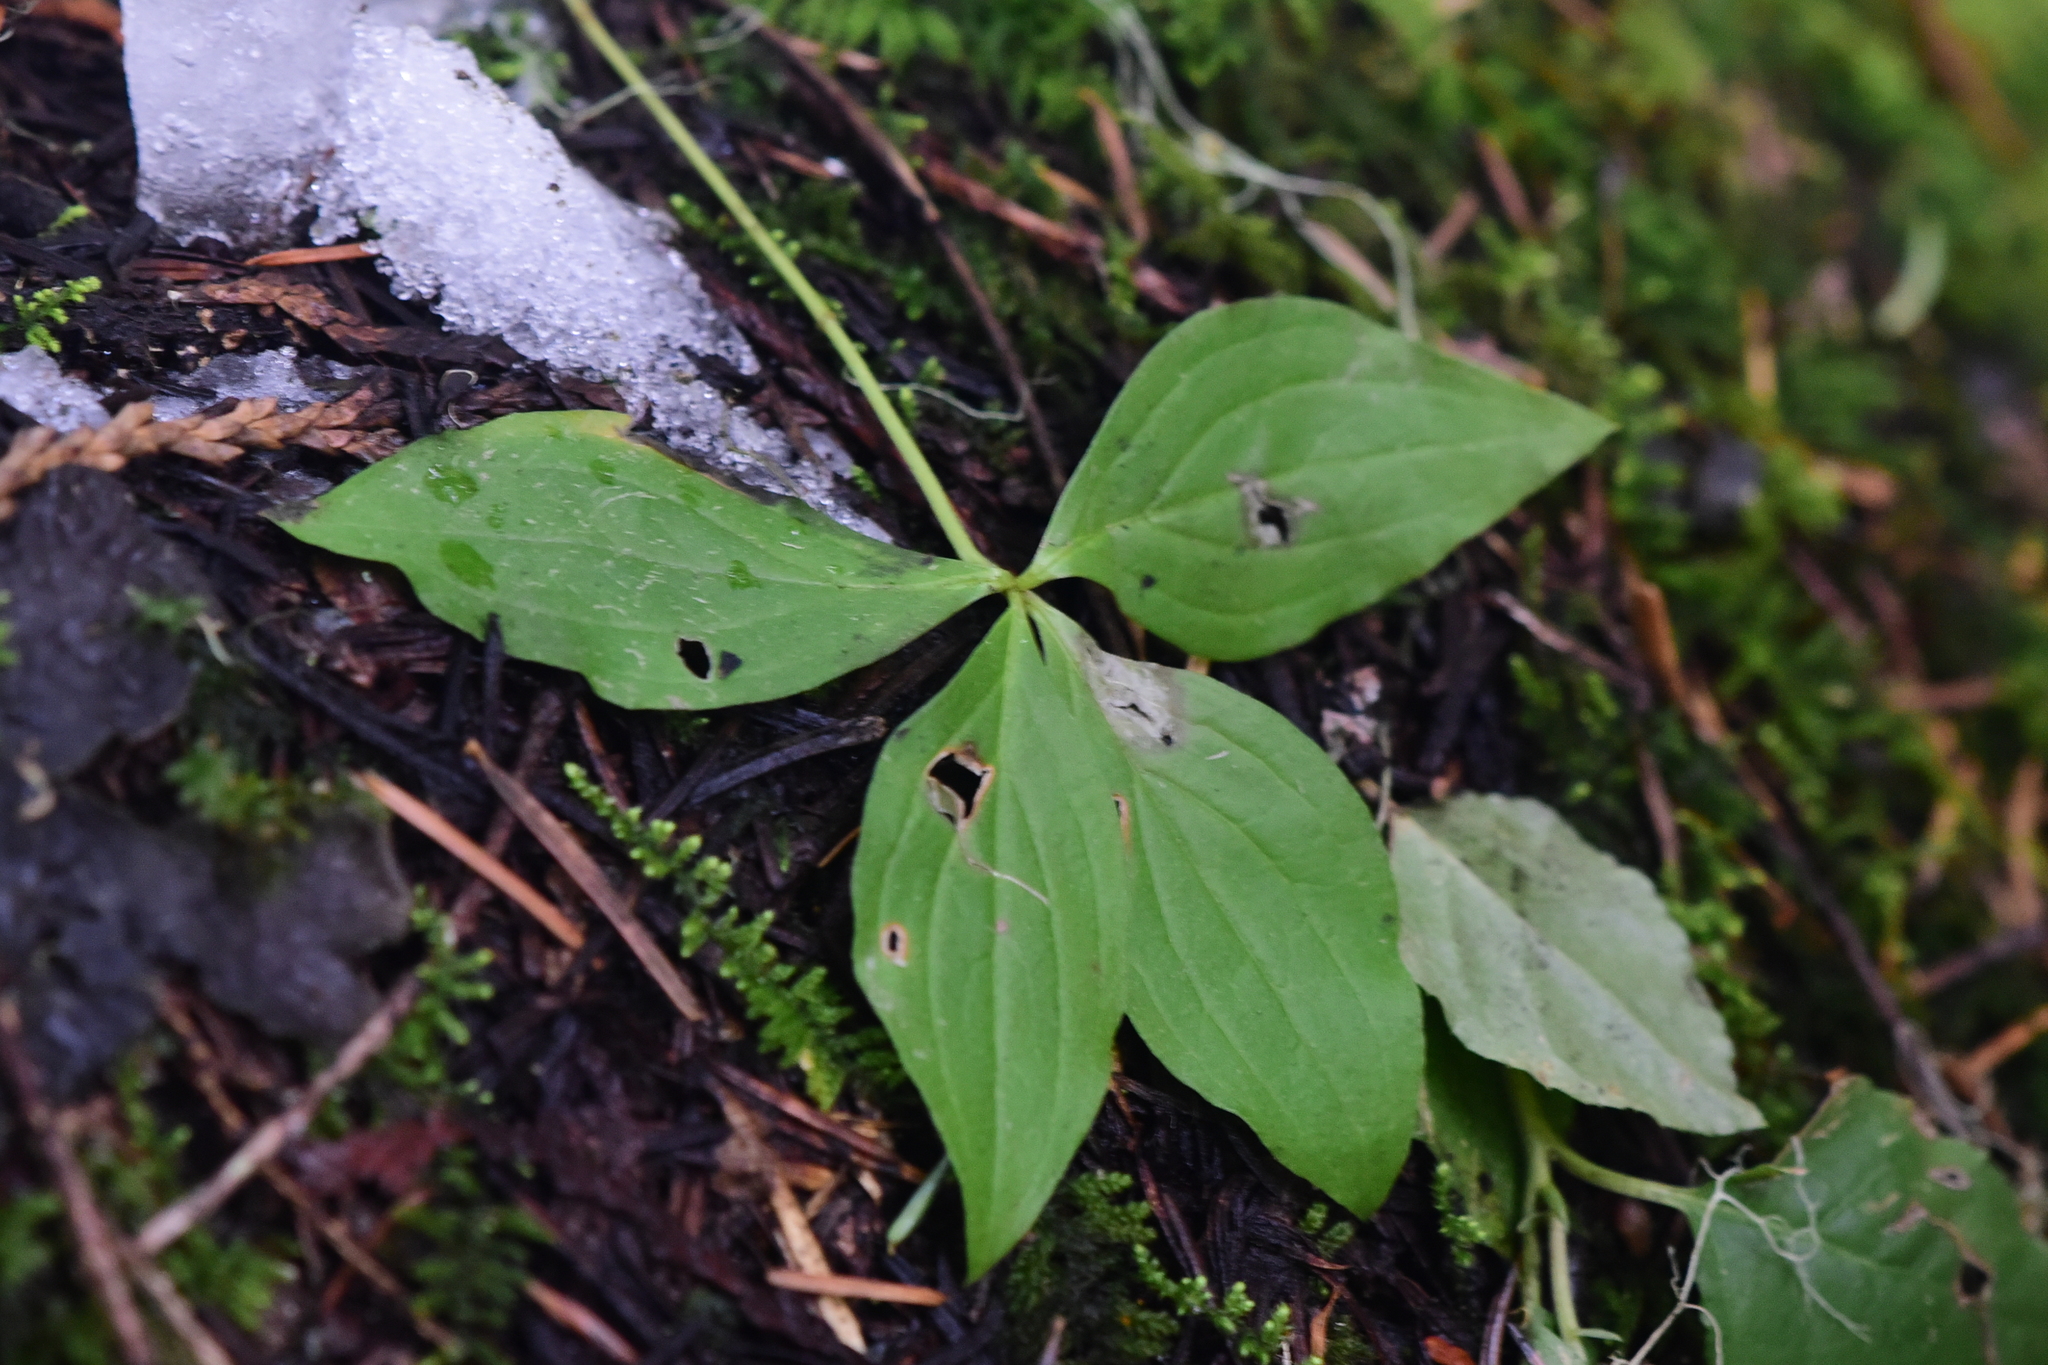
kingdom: Plantae
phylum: Tracheophyta
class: Magnoliopsida
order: Cornales
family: Cornaceae
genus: Cornus
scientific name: Cornus unalaschkensis
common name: Alaska bunchberry
